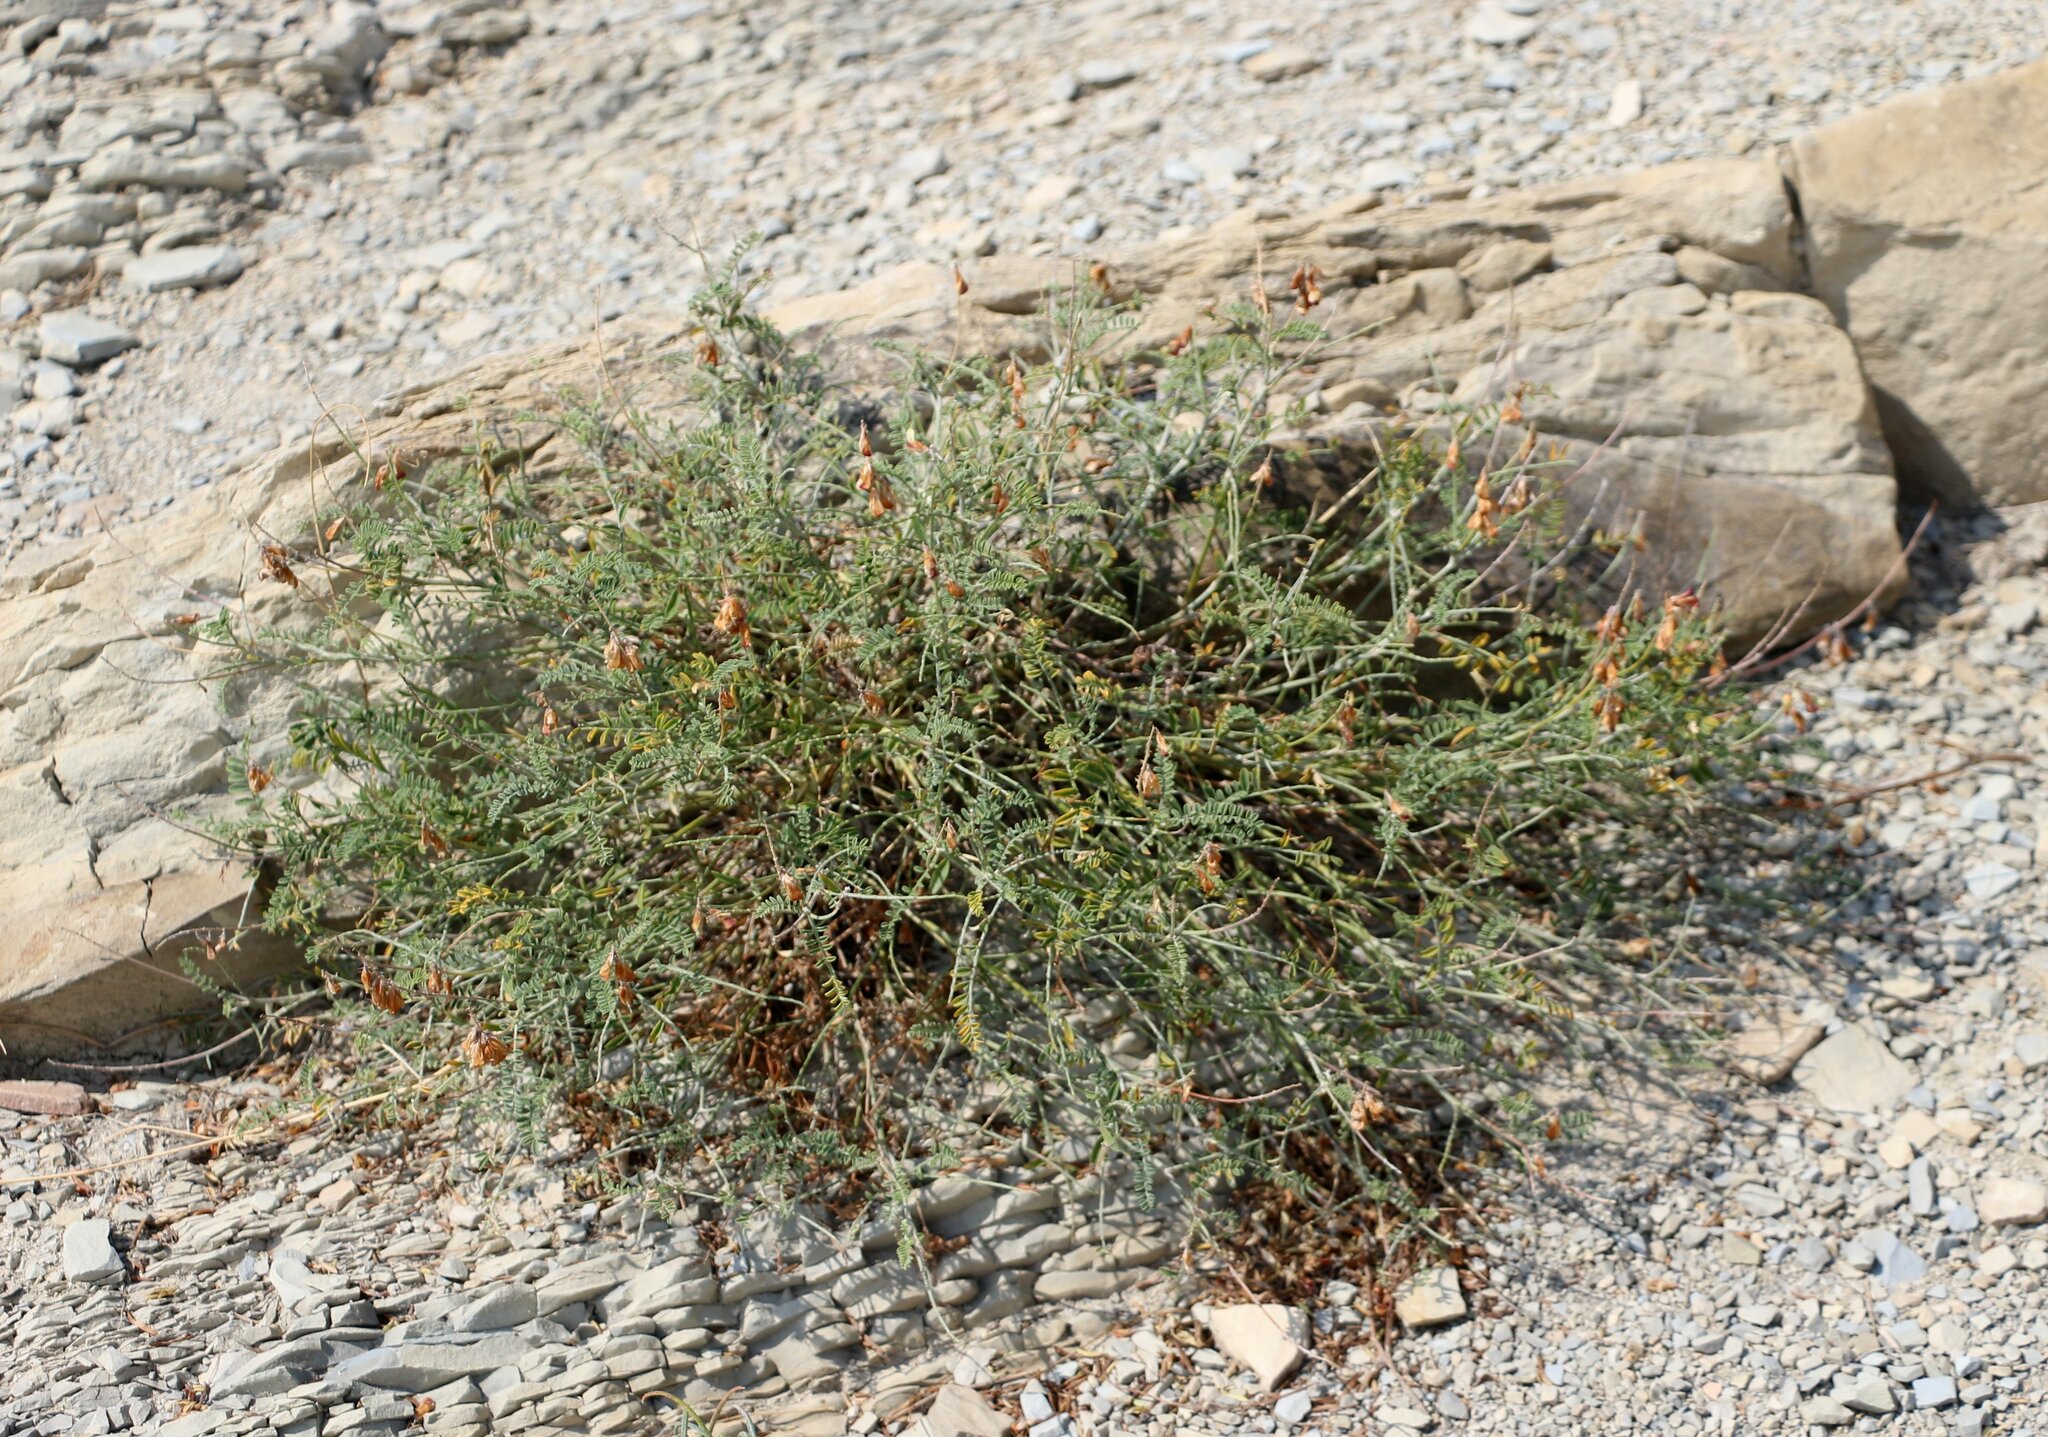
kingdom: Plantae
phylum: Tracheophyta
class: Magnoliopsida
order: Fabales
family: Fabaceae
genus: Hedysarum
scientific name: Hedysarum tauricum
